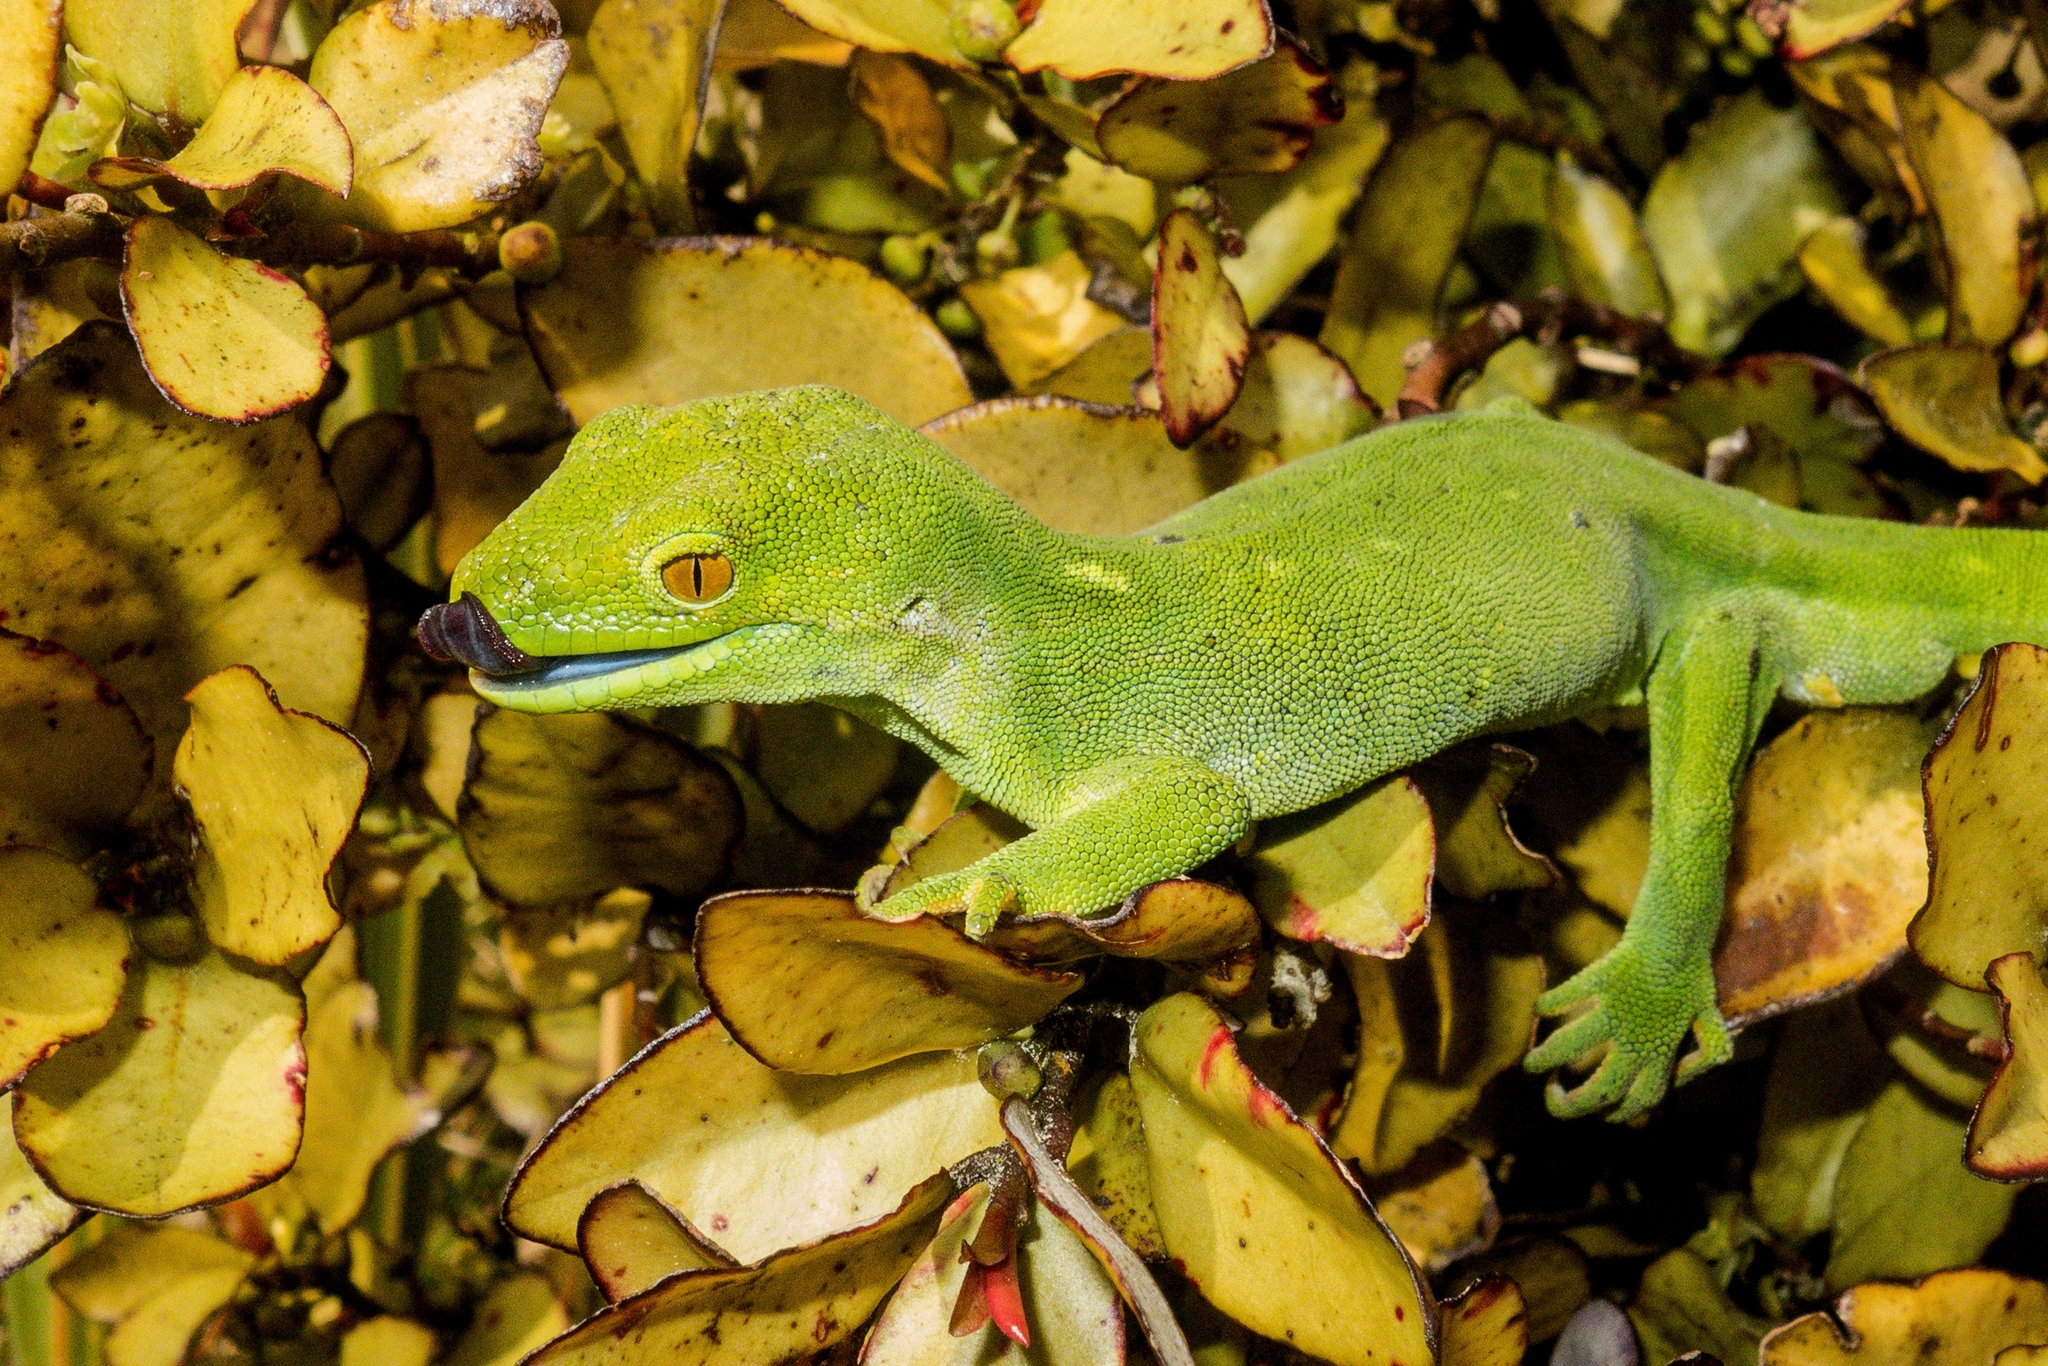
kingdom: Animalia
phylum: Chordata
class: Squamata
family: Diplodactylidae
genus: Naultinus
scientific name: Naultinus punctatus
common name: Wellington green gecko
